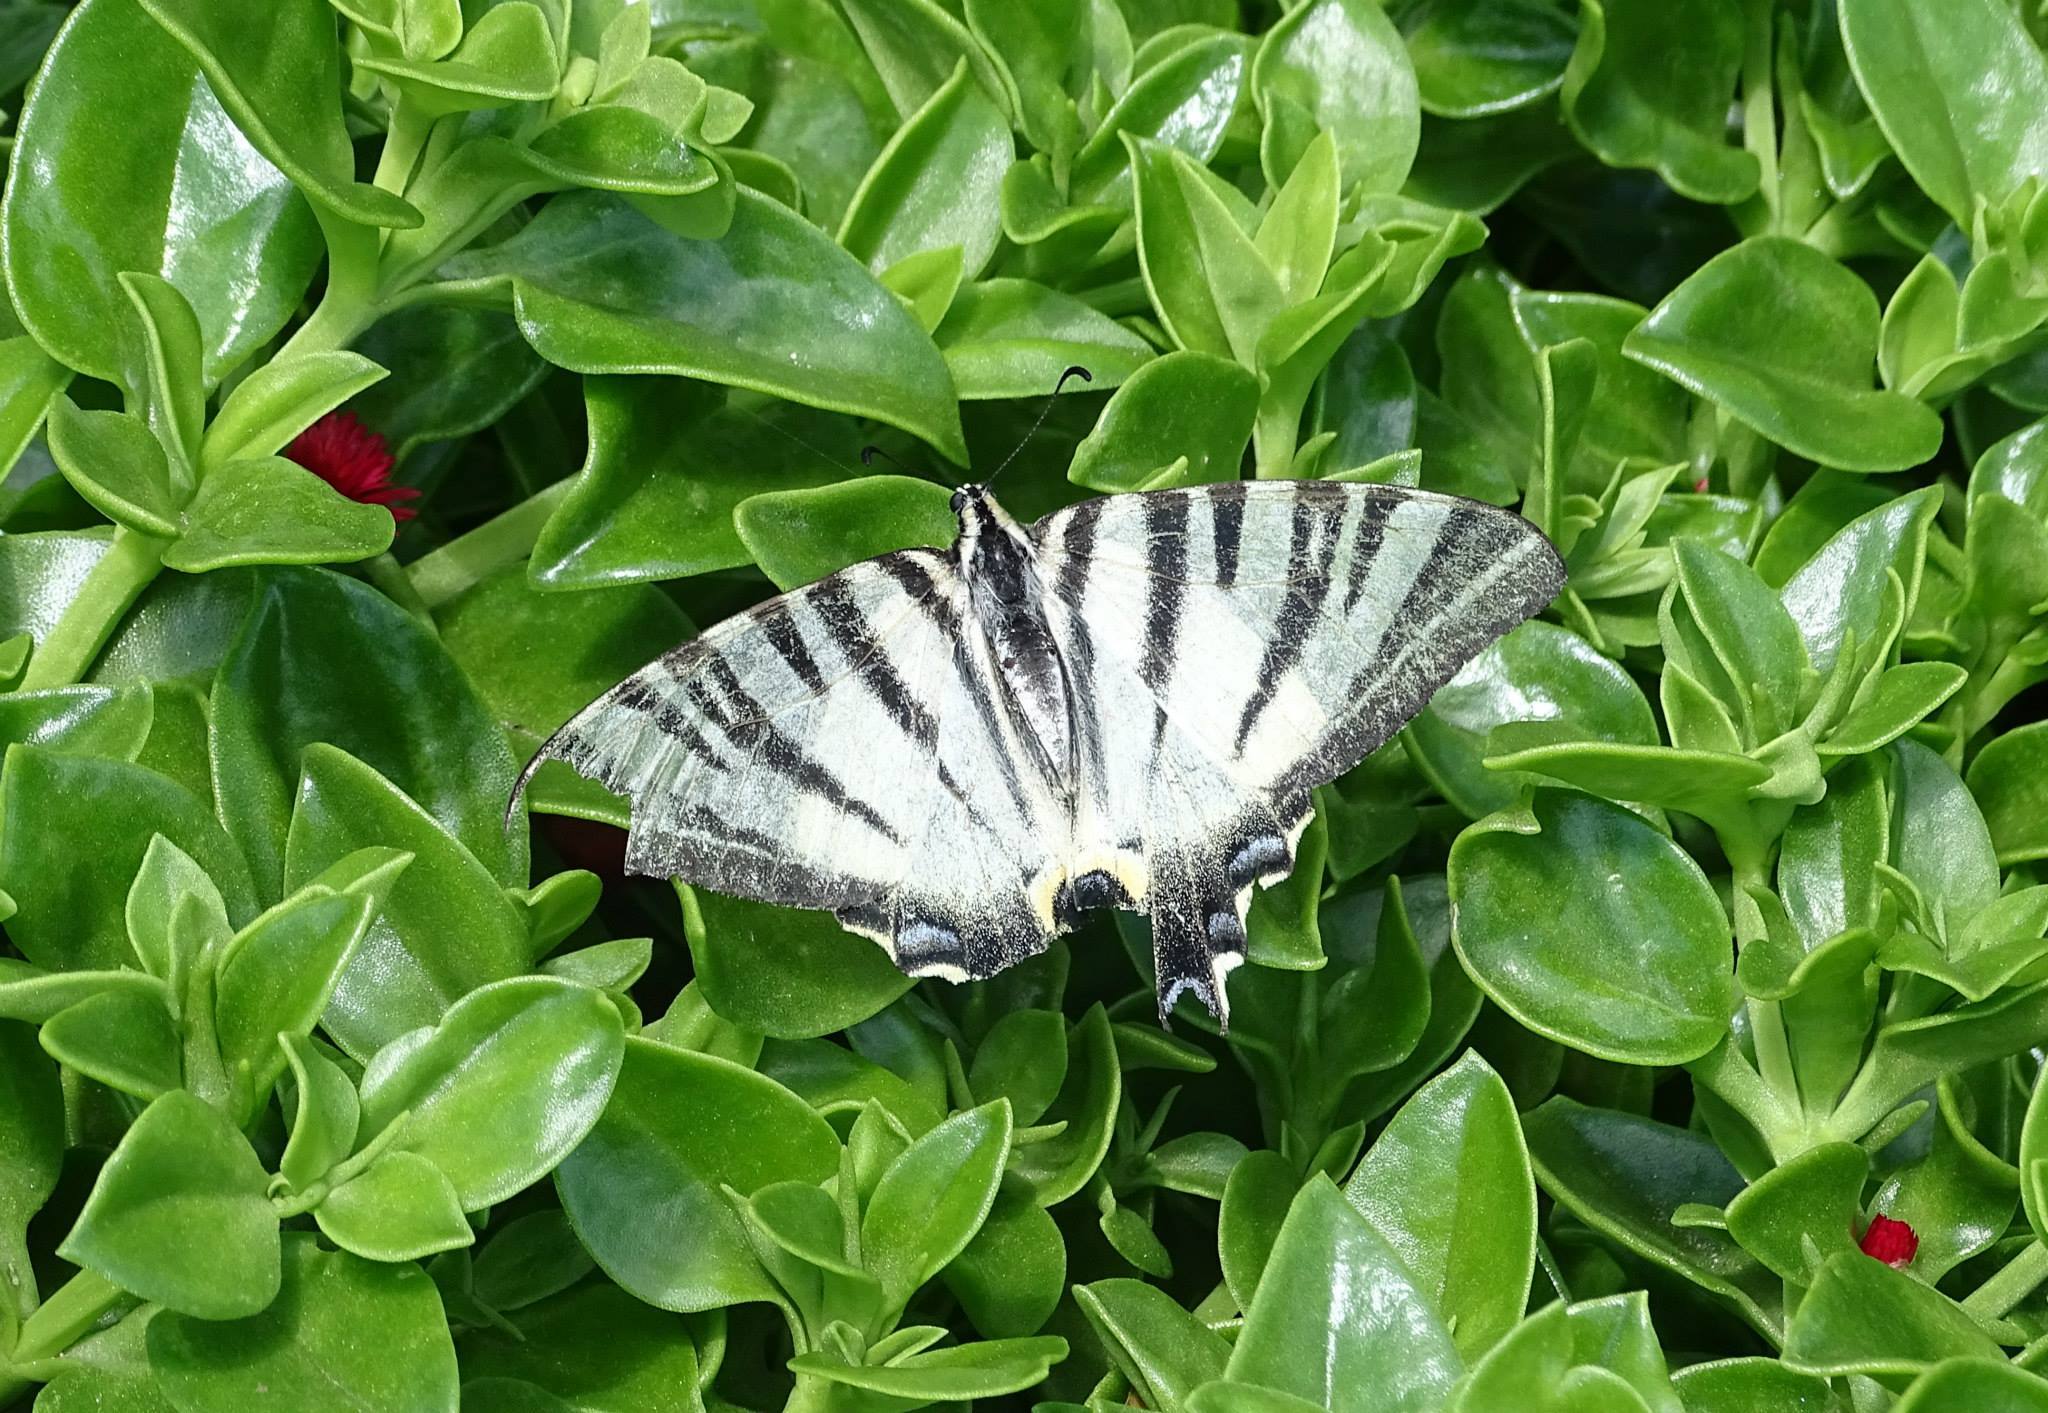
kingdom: Animalia
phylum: Arthropoda
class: Insecta
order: Lepidoptera
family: Papilionidae
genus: Iphiclides
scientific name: Iphiclides podalirius
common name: Scarce swallowtail
